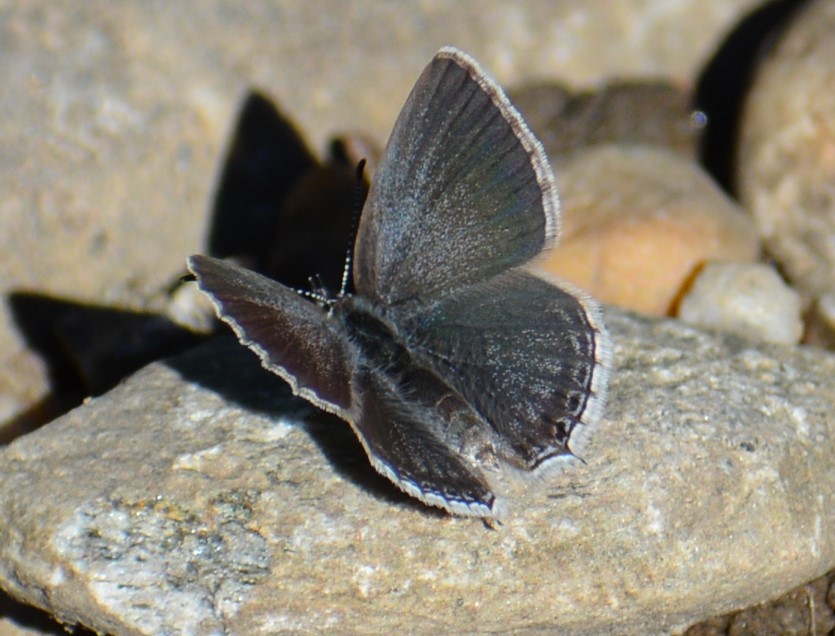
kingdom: Animalia
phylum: Arthropoda
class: Insecta
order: Lepidoptera
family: Lycaenidae
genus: Elkalyce
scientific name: Elkalyce amyntula
